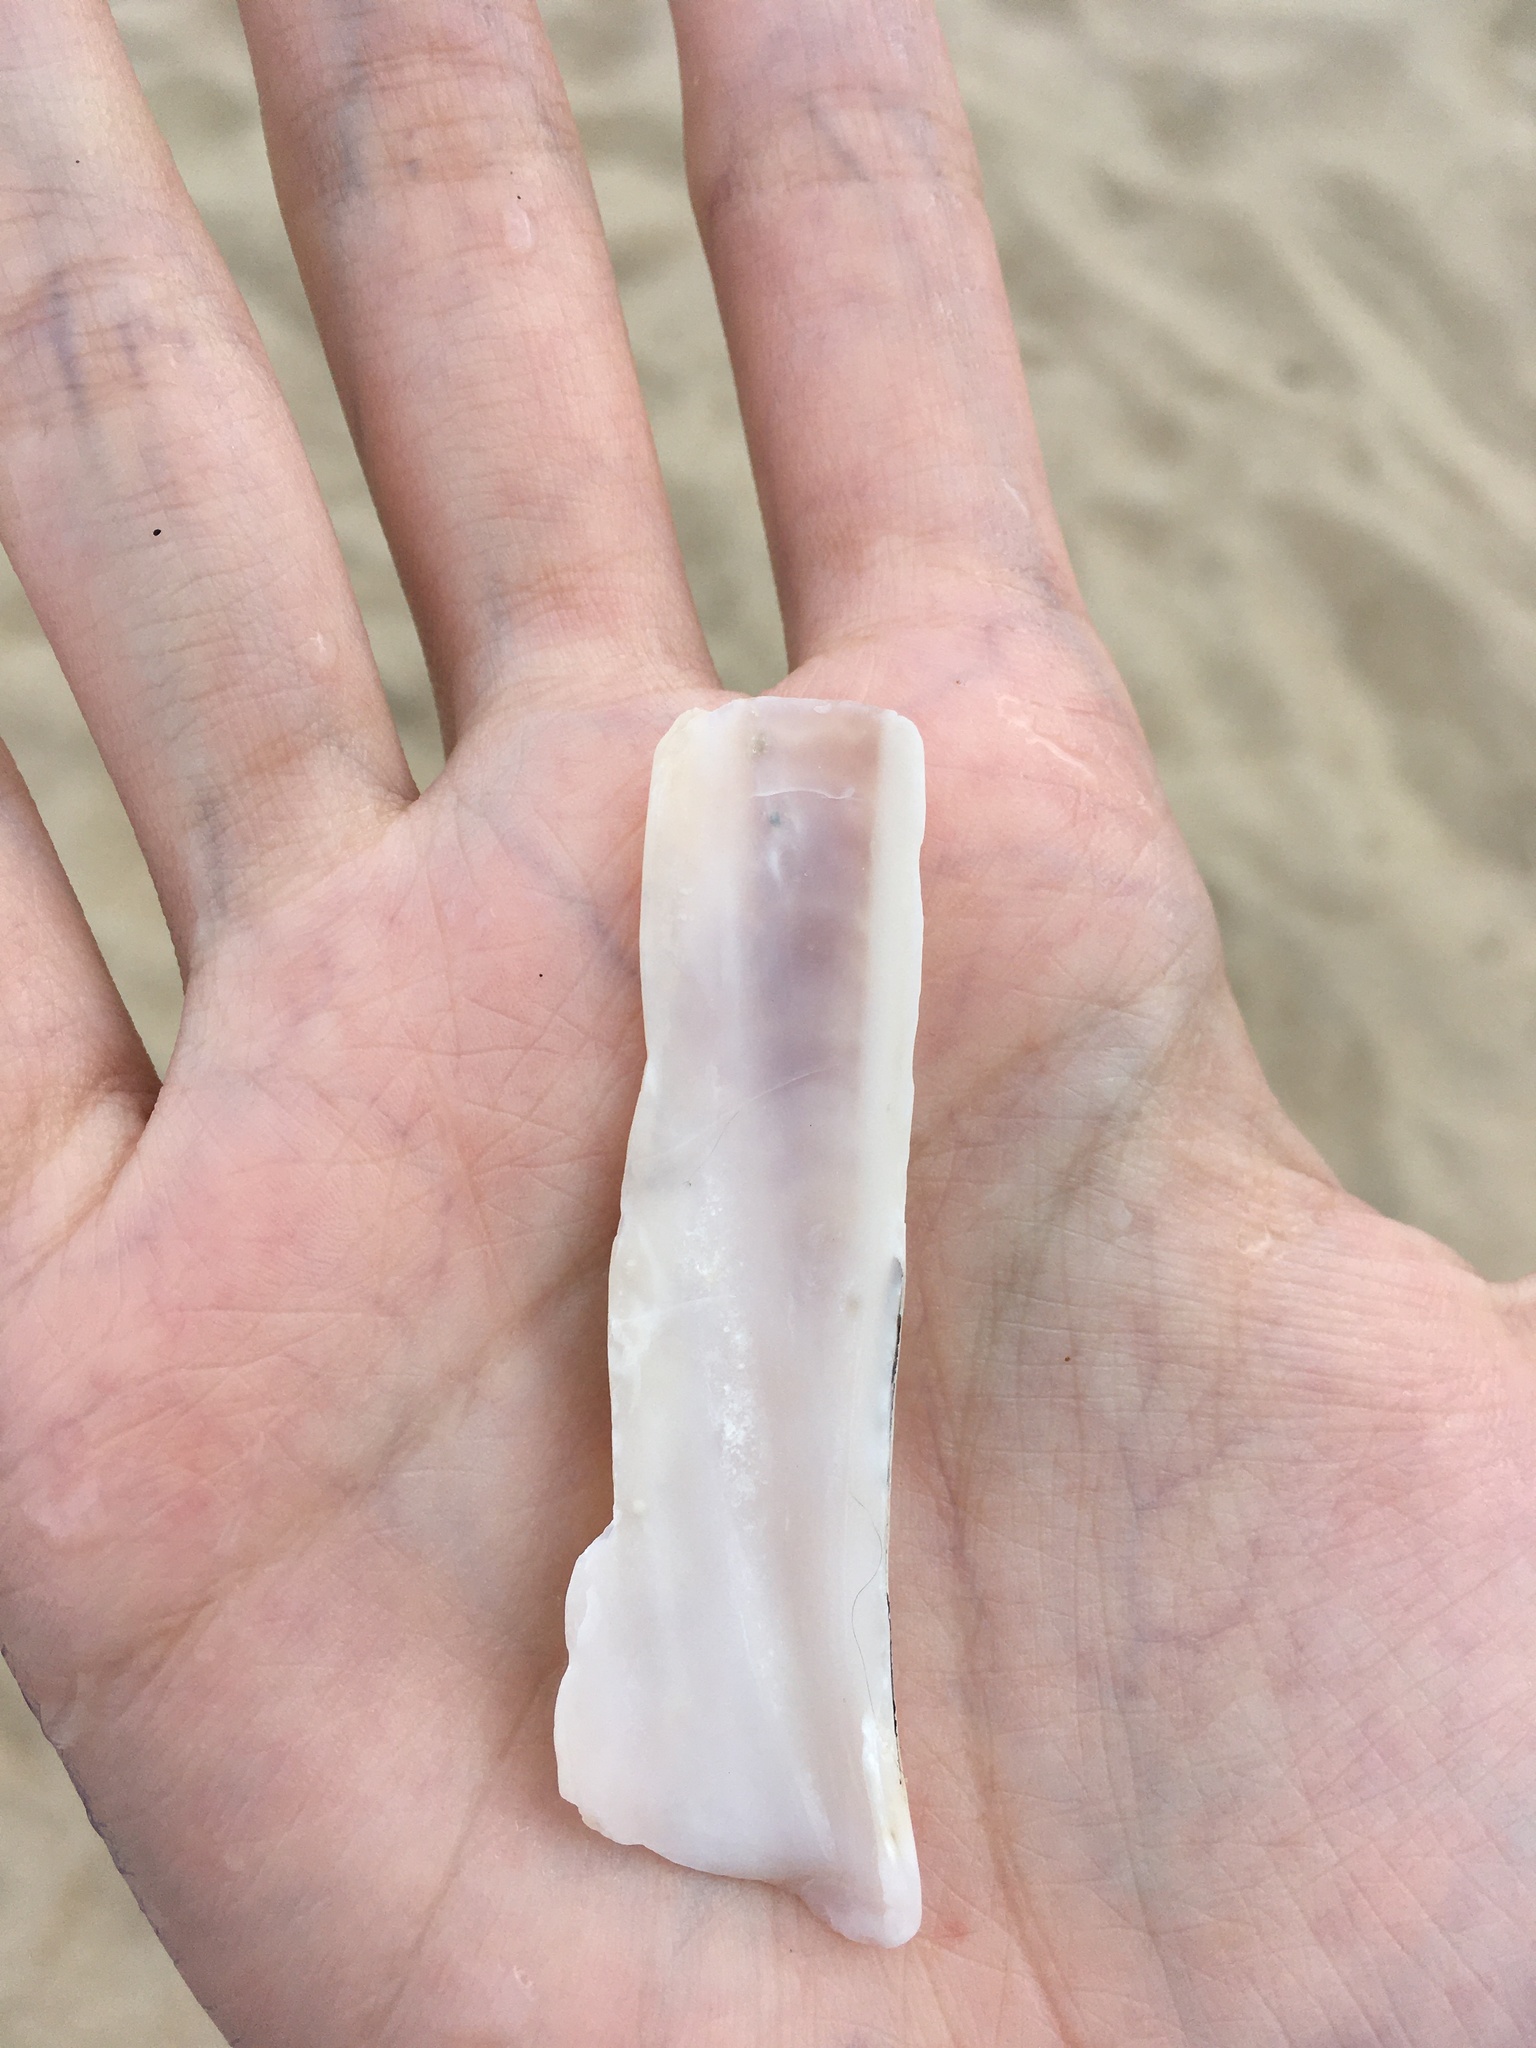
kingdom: Animalia
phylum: Mollusca
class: Bivalvia
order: Adapedonta
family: Pharidae
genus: Ensis
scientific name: Ensis leei
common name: American jack knife clam
